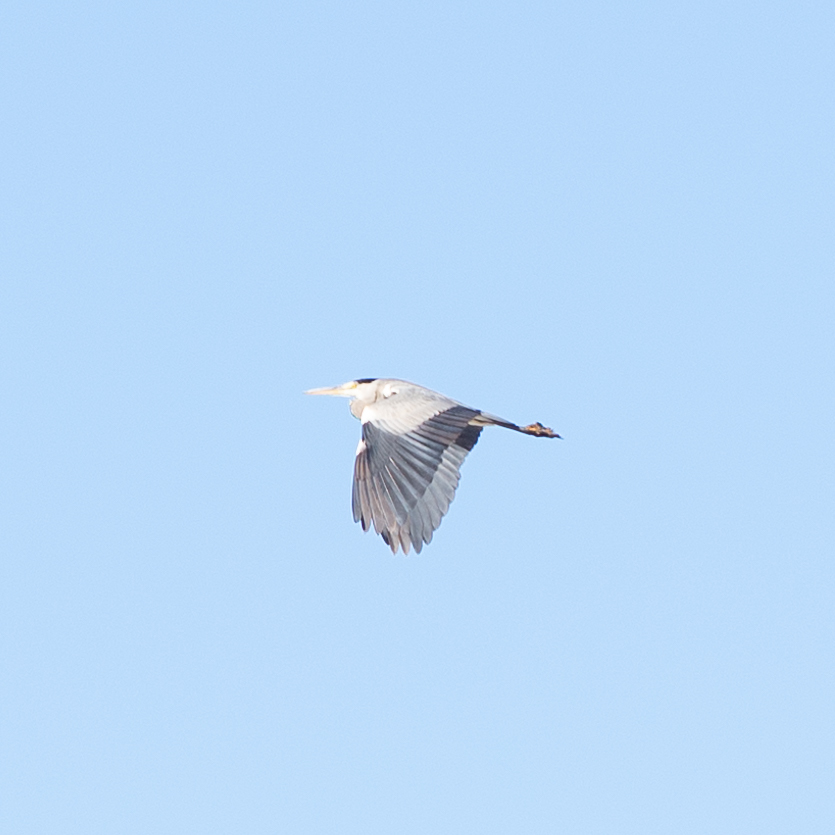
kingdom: Animalia
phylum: Chordata
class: Aves
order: Pelecaniformes
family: Ardeidae
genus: Ardea
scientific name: Ardea cinerea
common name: Grey heron
